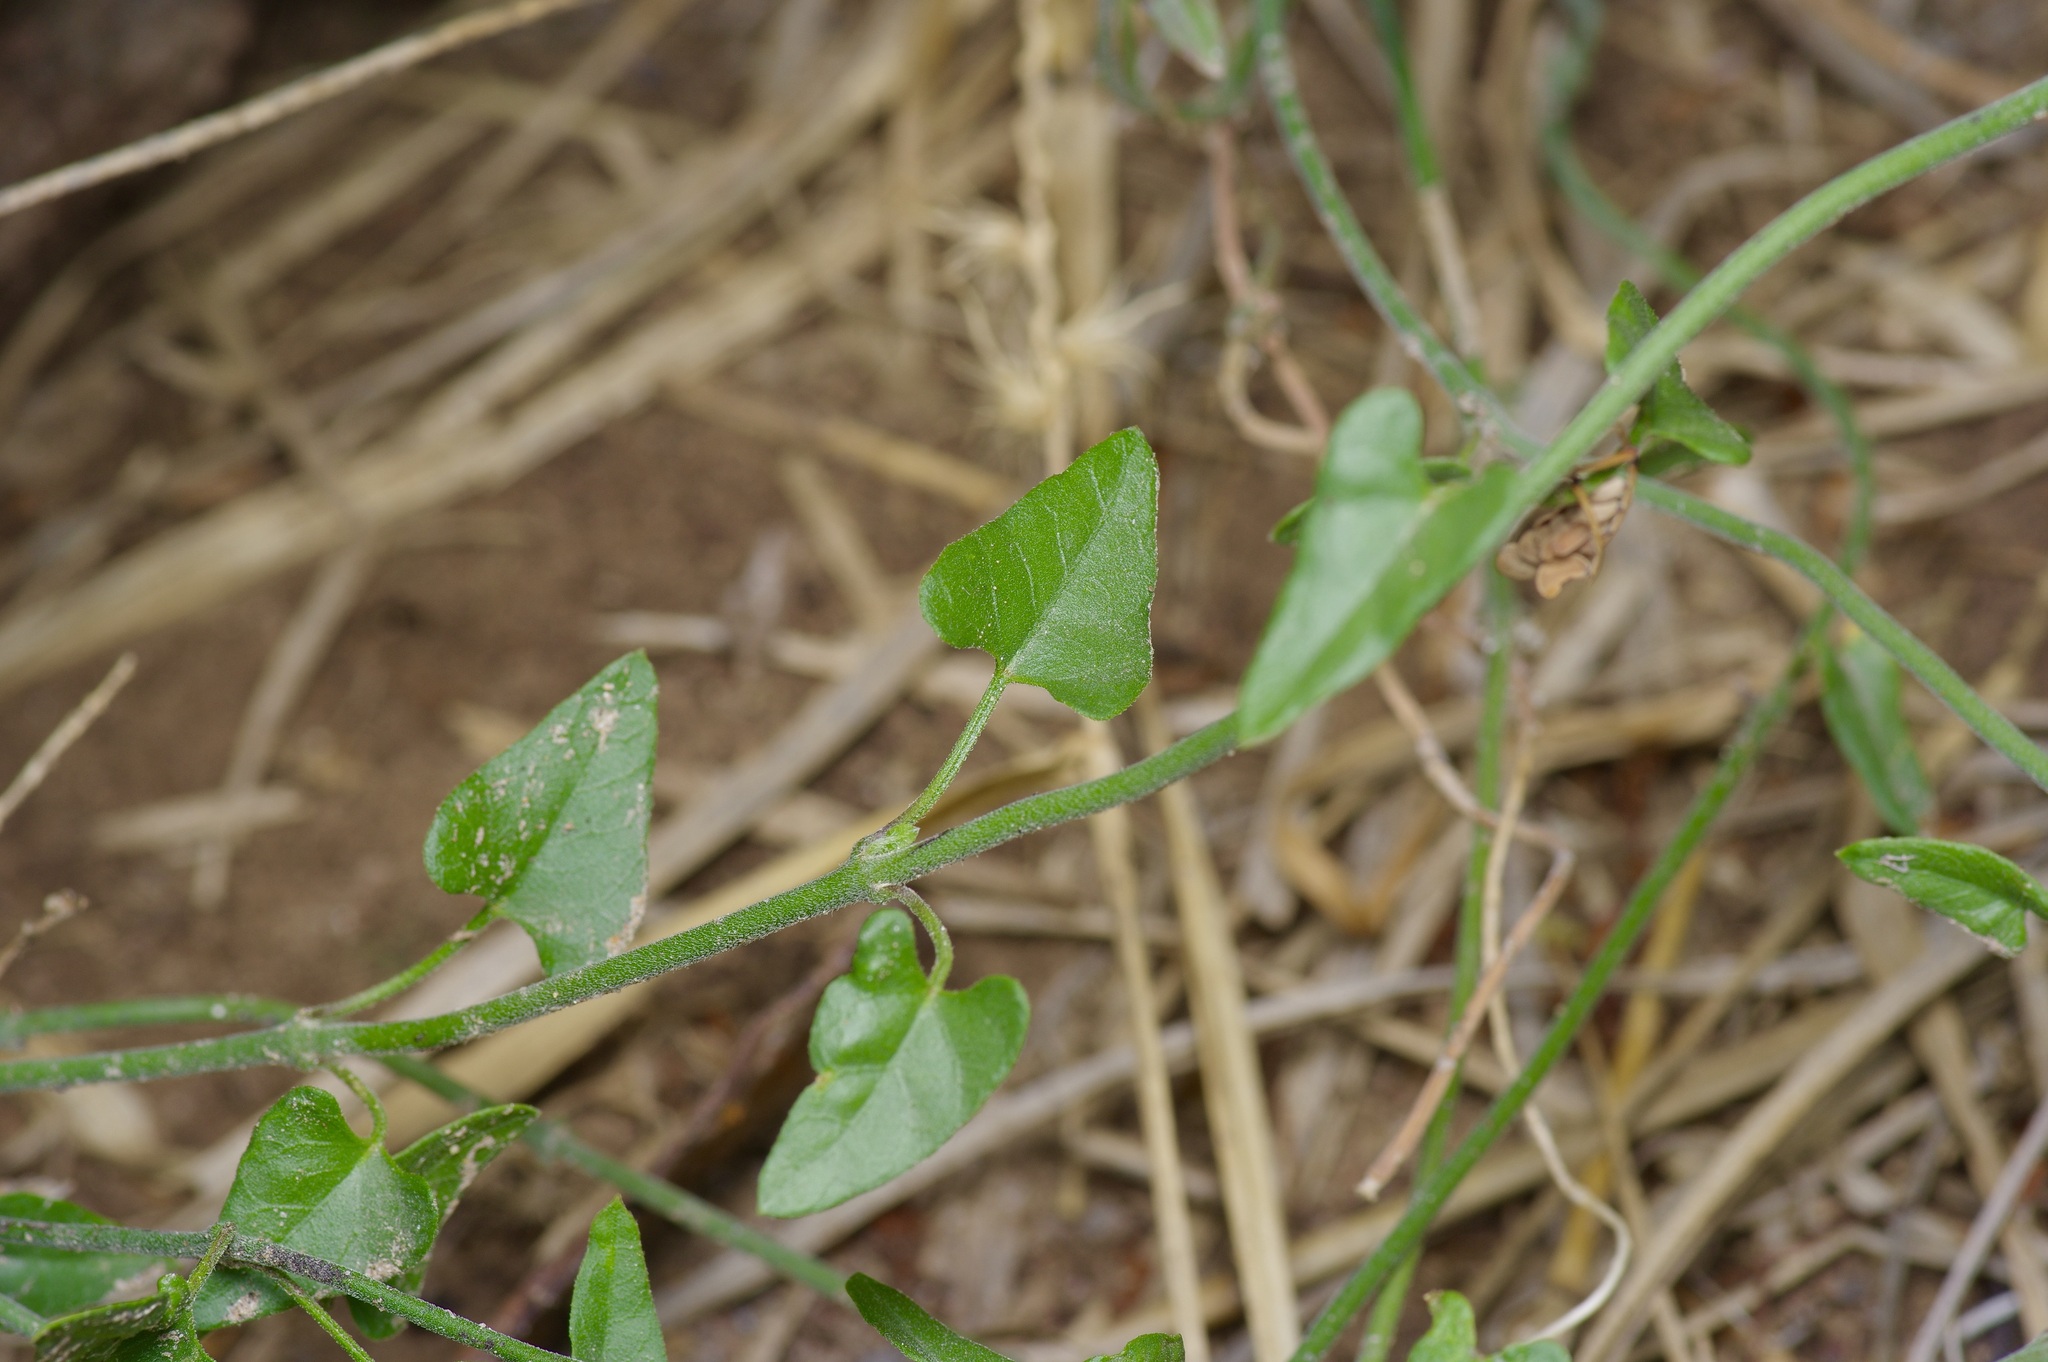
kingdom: Plantae
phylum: Tracheophyta
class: Magnoliopsida
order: Gentianales
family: Apocynaceae
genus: Matelea
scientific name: Matelea parvifolia
